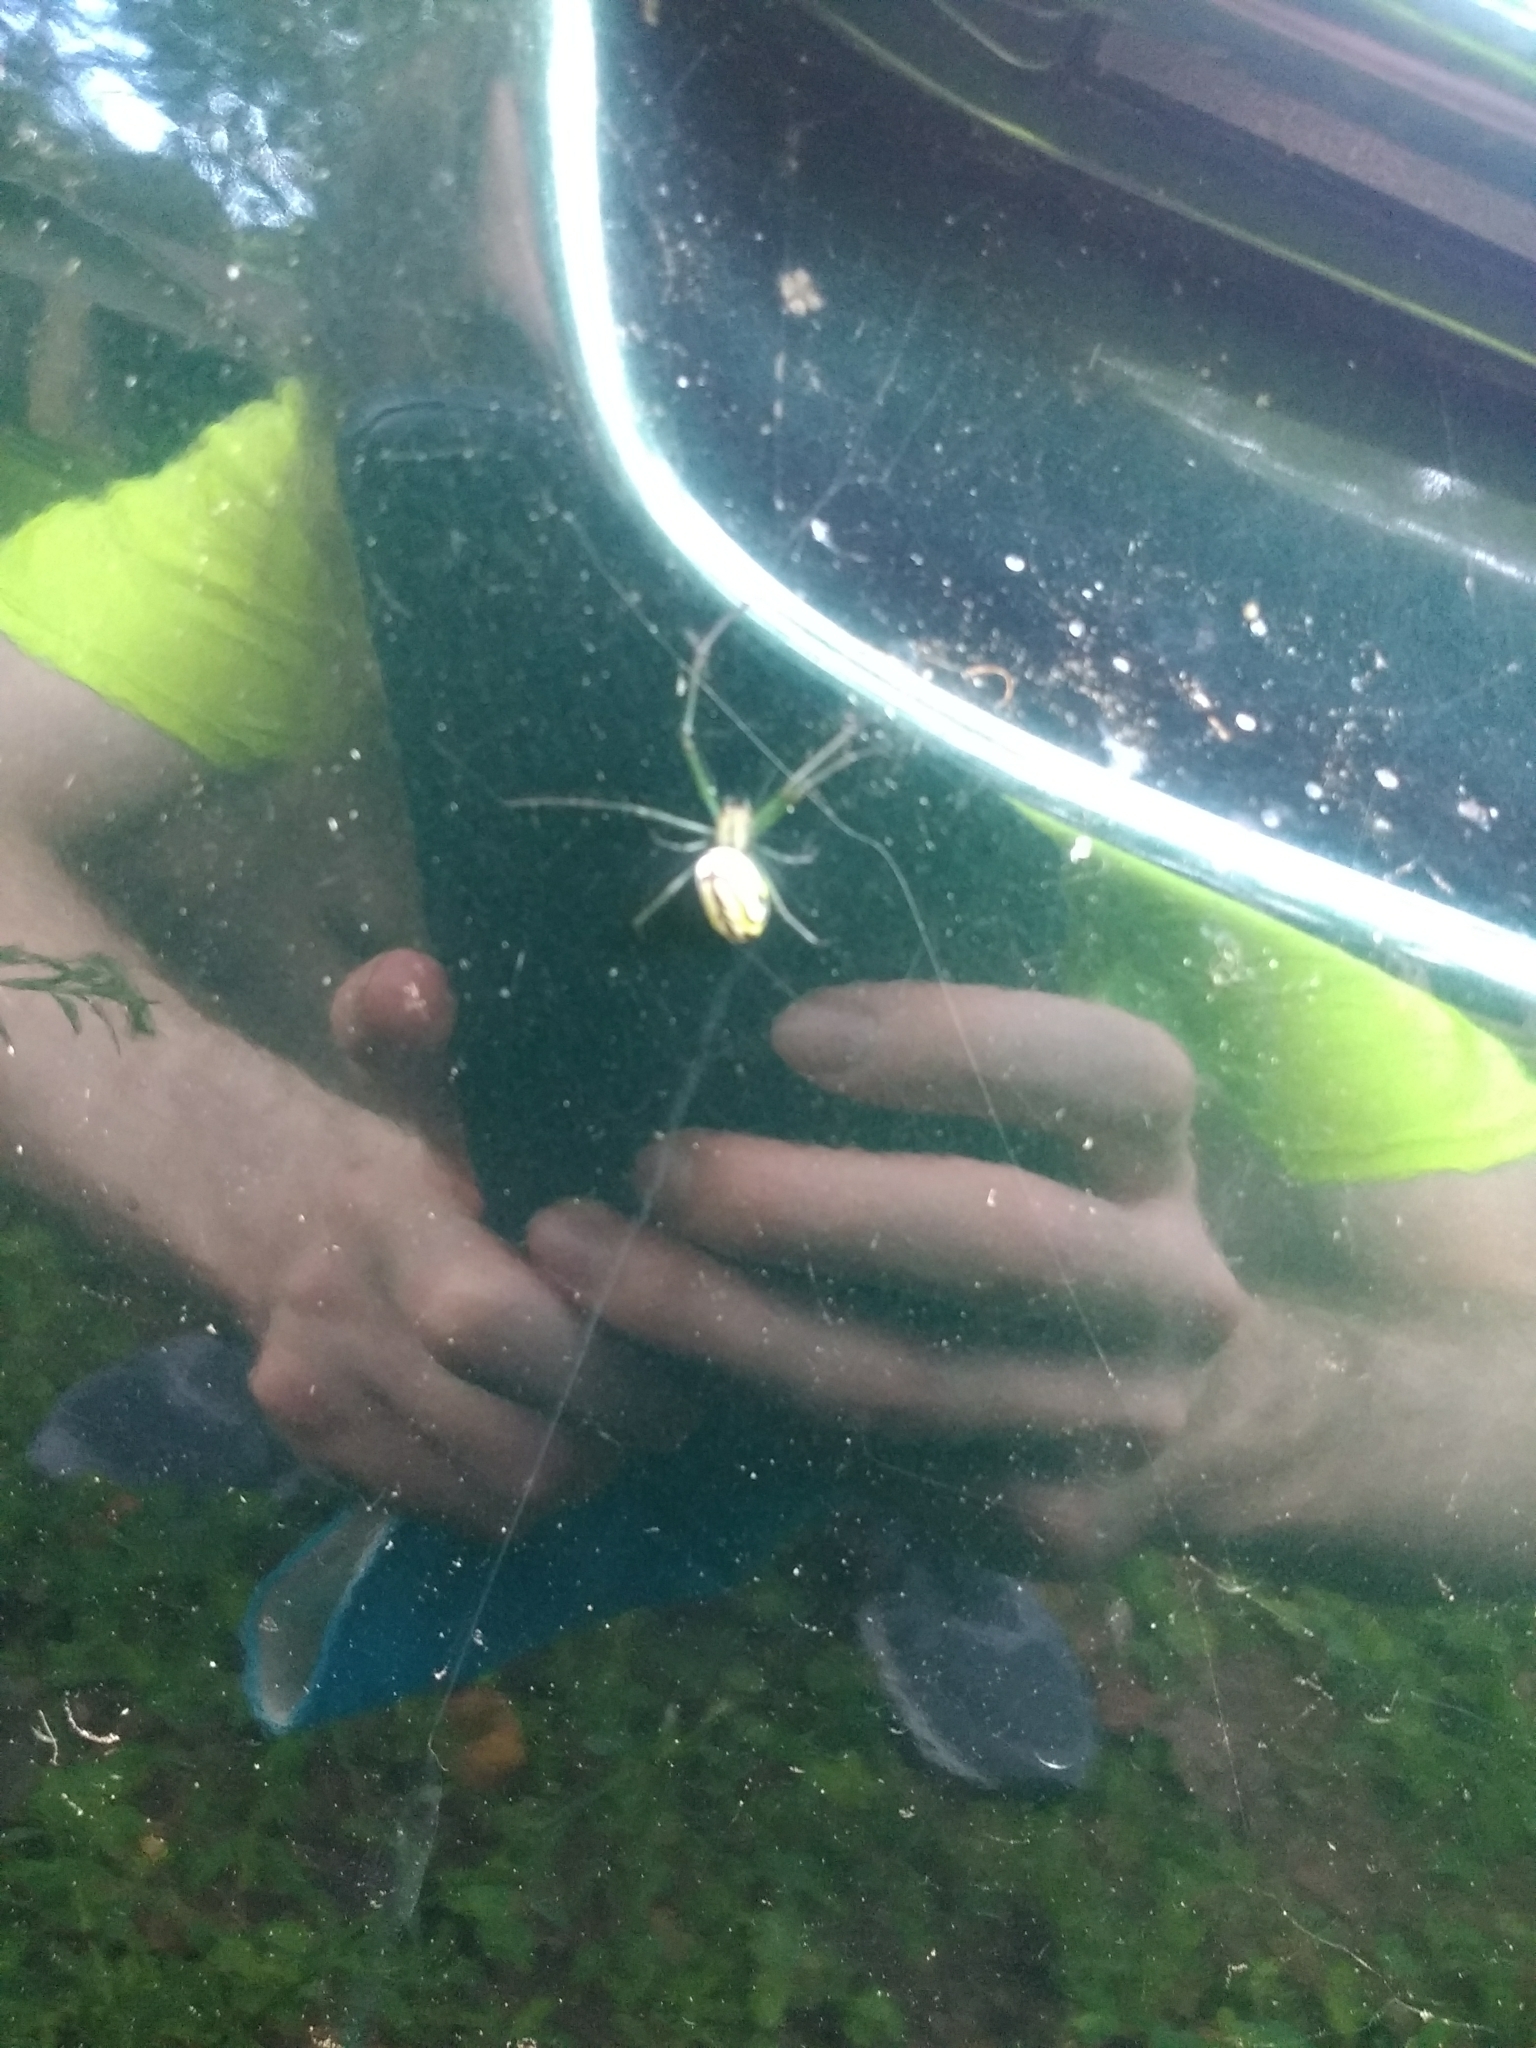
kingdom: Animalia
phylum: Arthropoda
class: Arachnida
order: Araneae
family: Tetragnathidae
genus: Leucauge
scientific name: Leucauge venusta
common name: Longjawed orb weavers
